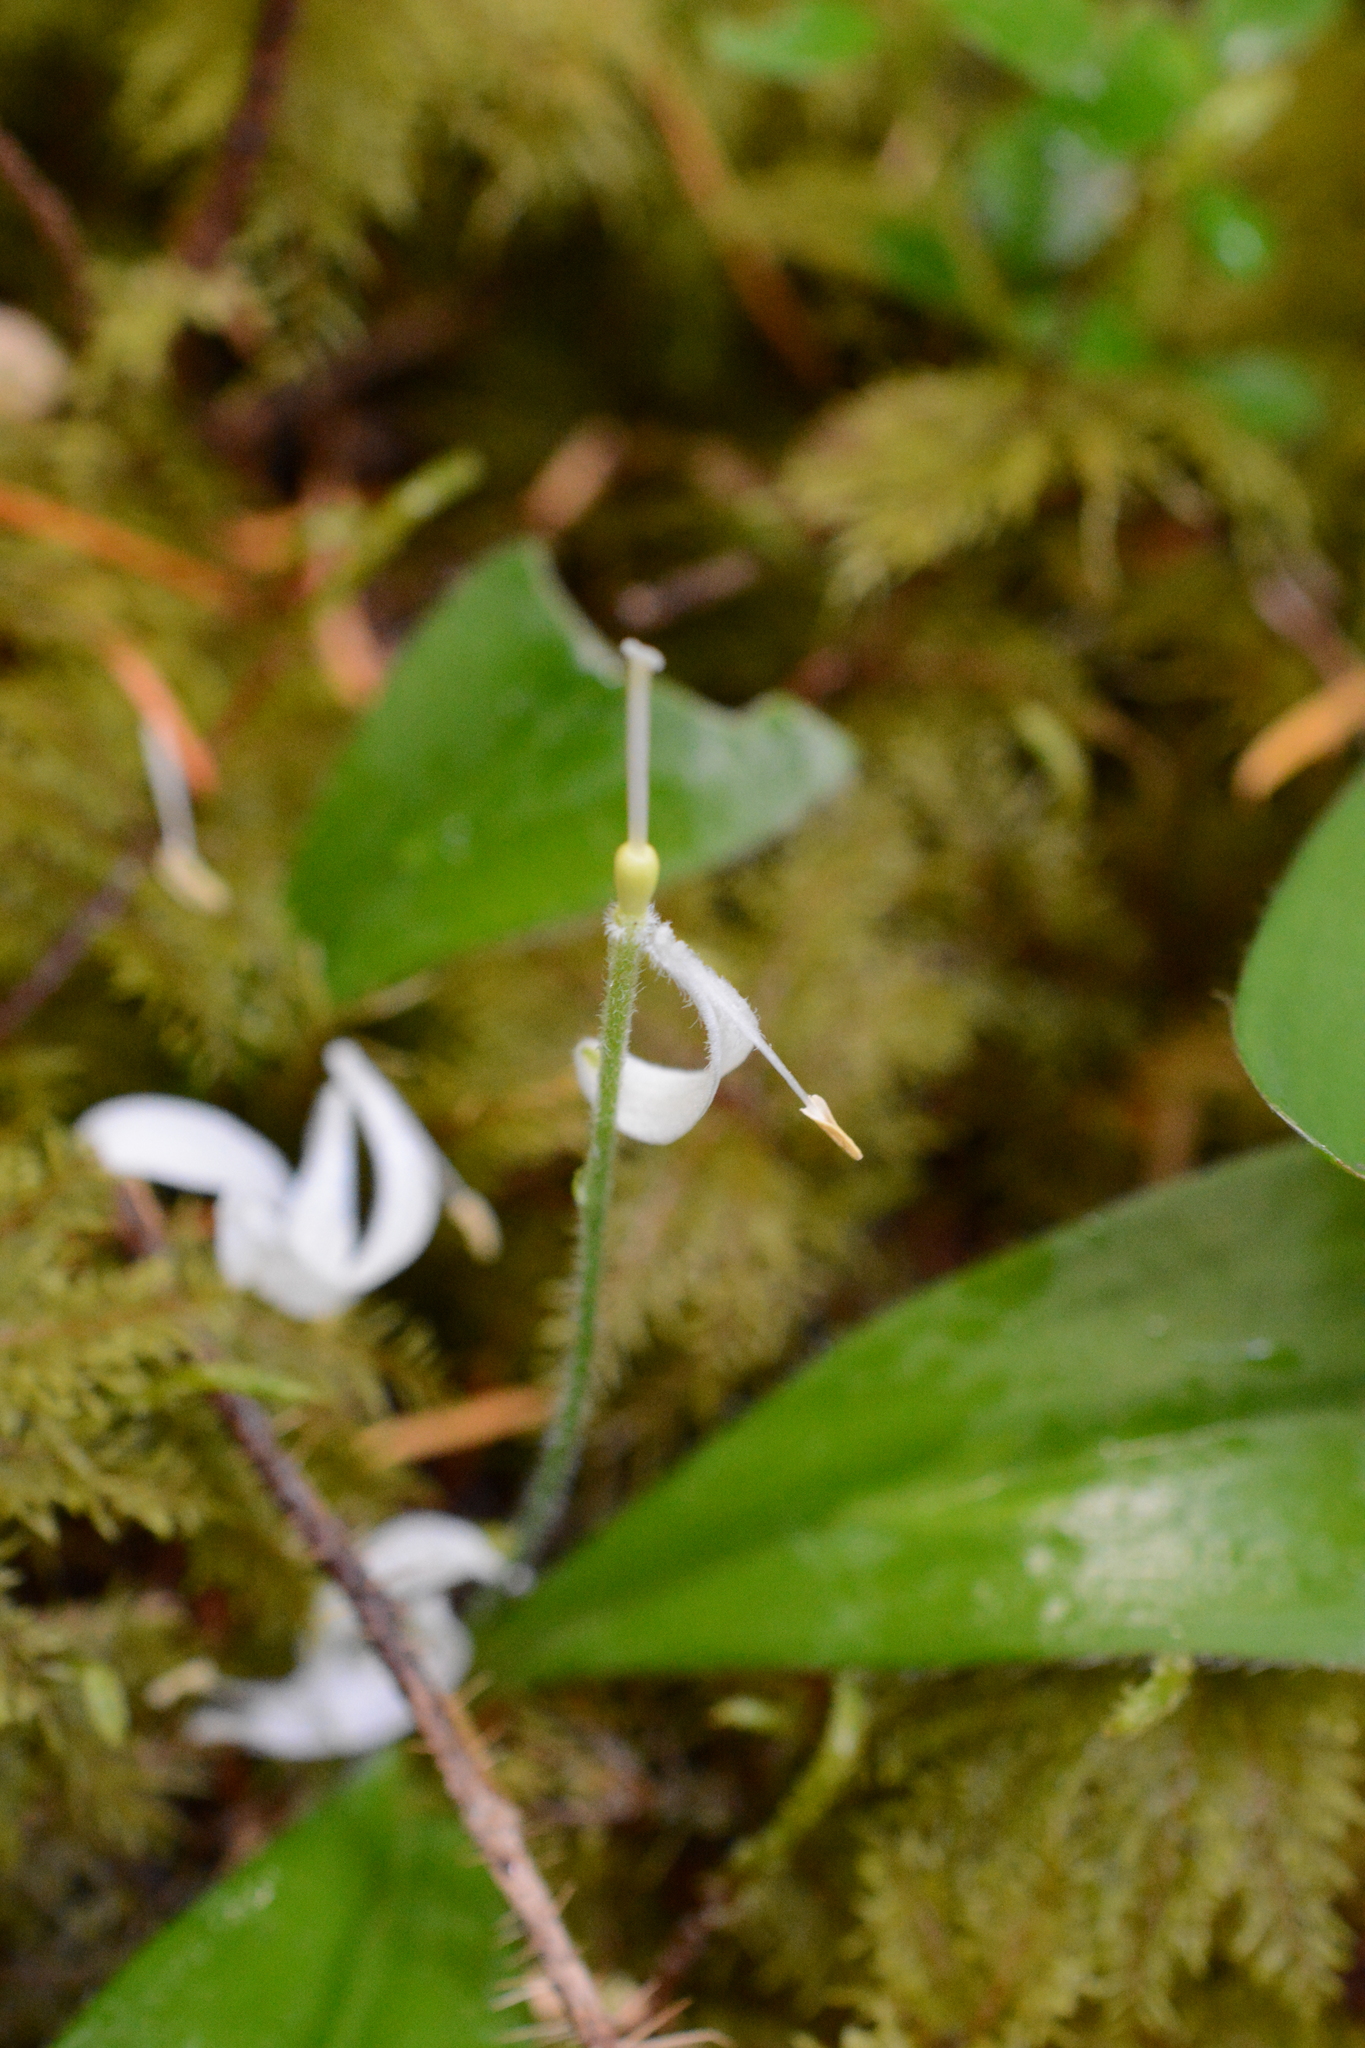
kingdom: Plantae
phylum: Tracheophyta
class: Liliopsida
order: Liliales
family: Liliaceae
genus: Clintonia
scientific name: Clintonia uniflora
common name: Queen's cup
